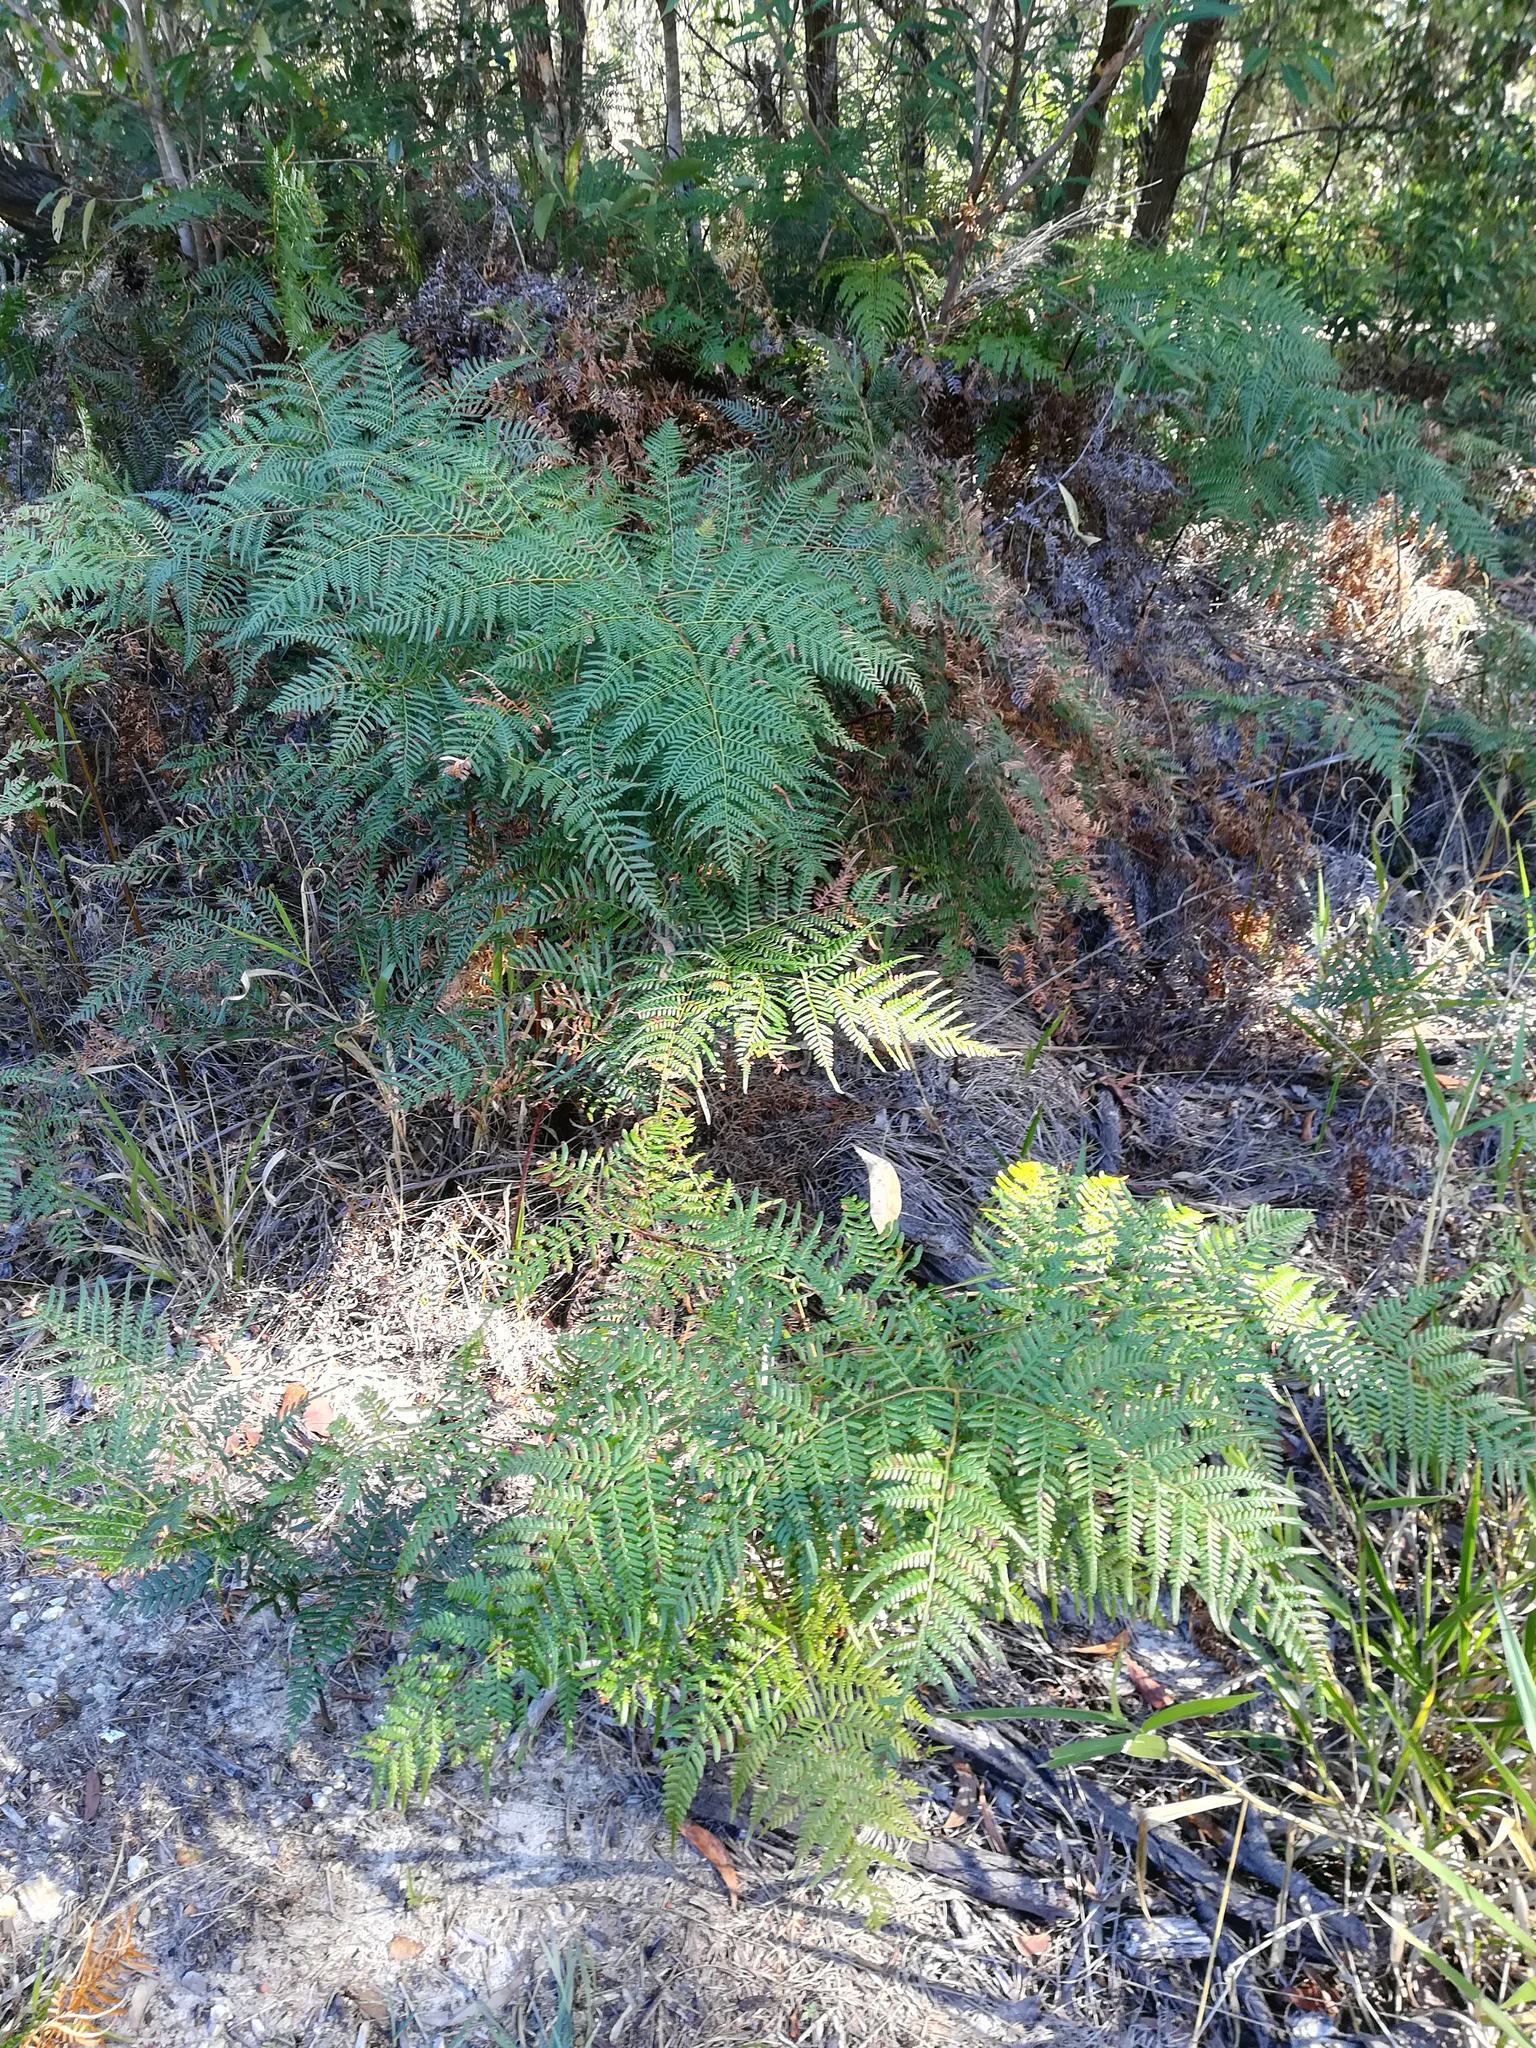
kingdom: Plantae
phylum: Tracheophyta
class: Polypodiopsida
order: Polypodiales
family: Dennstaedtiaceae
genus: Pteridium
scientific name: Pteridium esculentum
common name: Bracken fern
